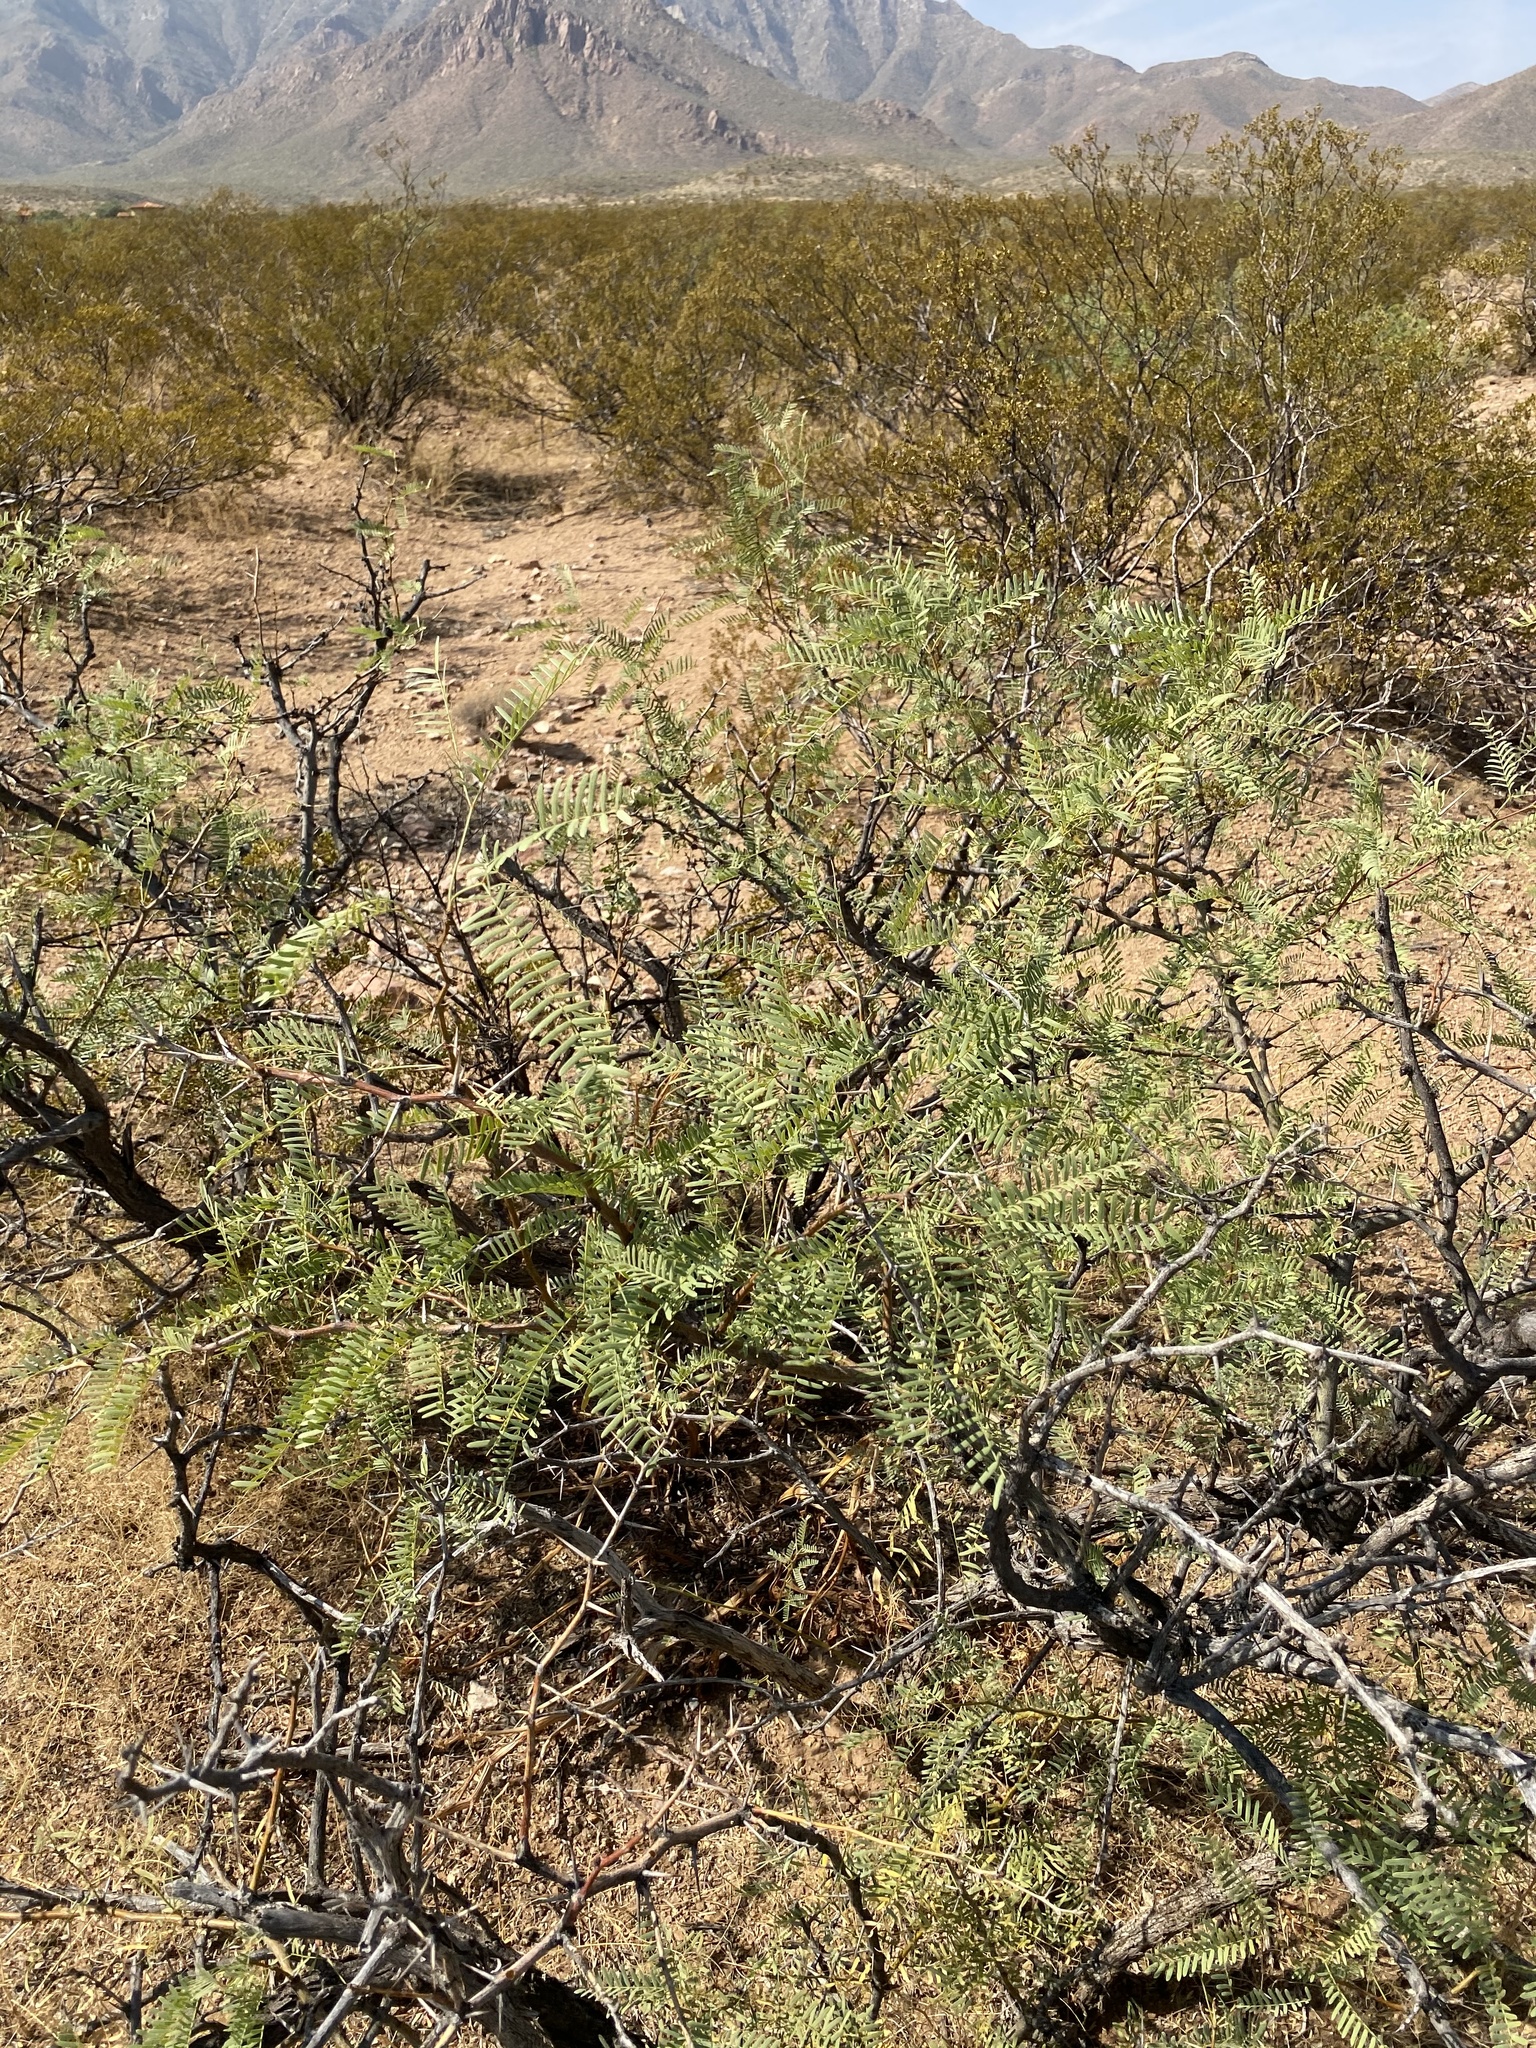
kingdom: Plantae
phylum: Tracheophyta
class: Magnoliopsida
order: Fabales
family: Fabaceae
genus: Prosopis
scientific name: Prosopis glandulosa
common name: Honey mesquite
